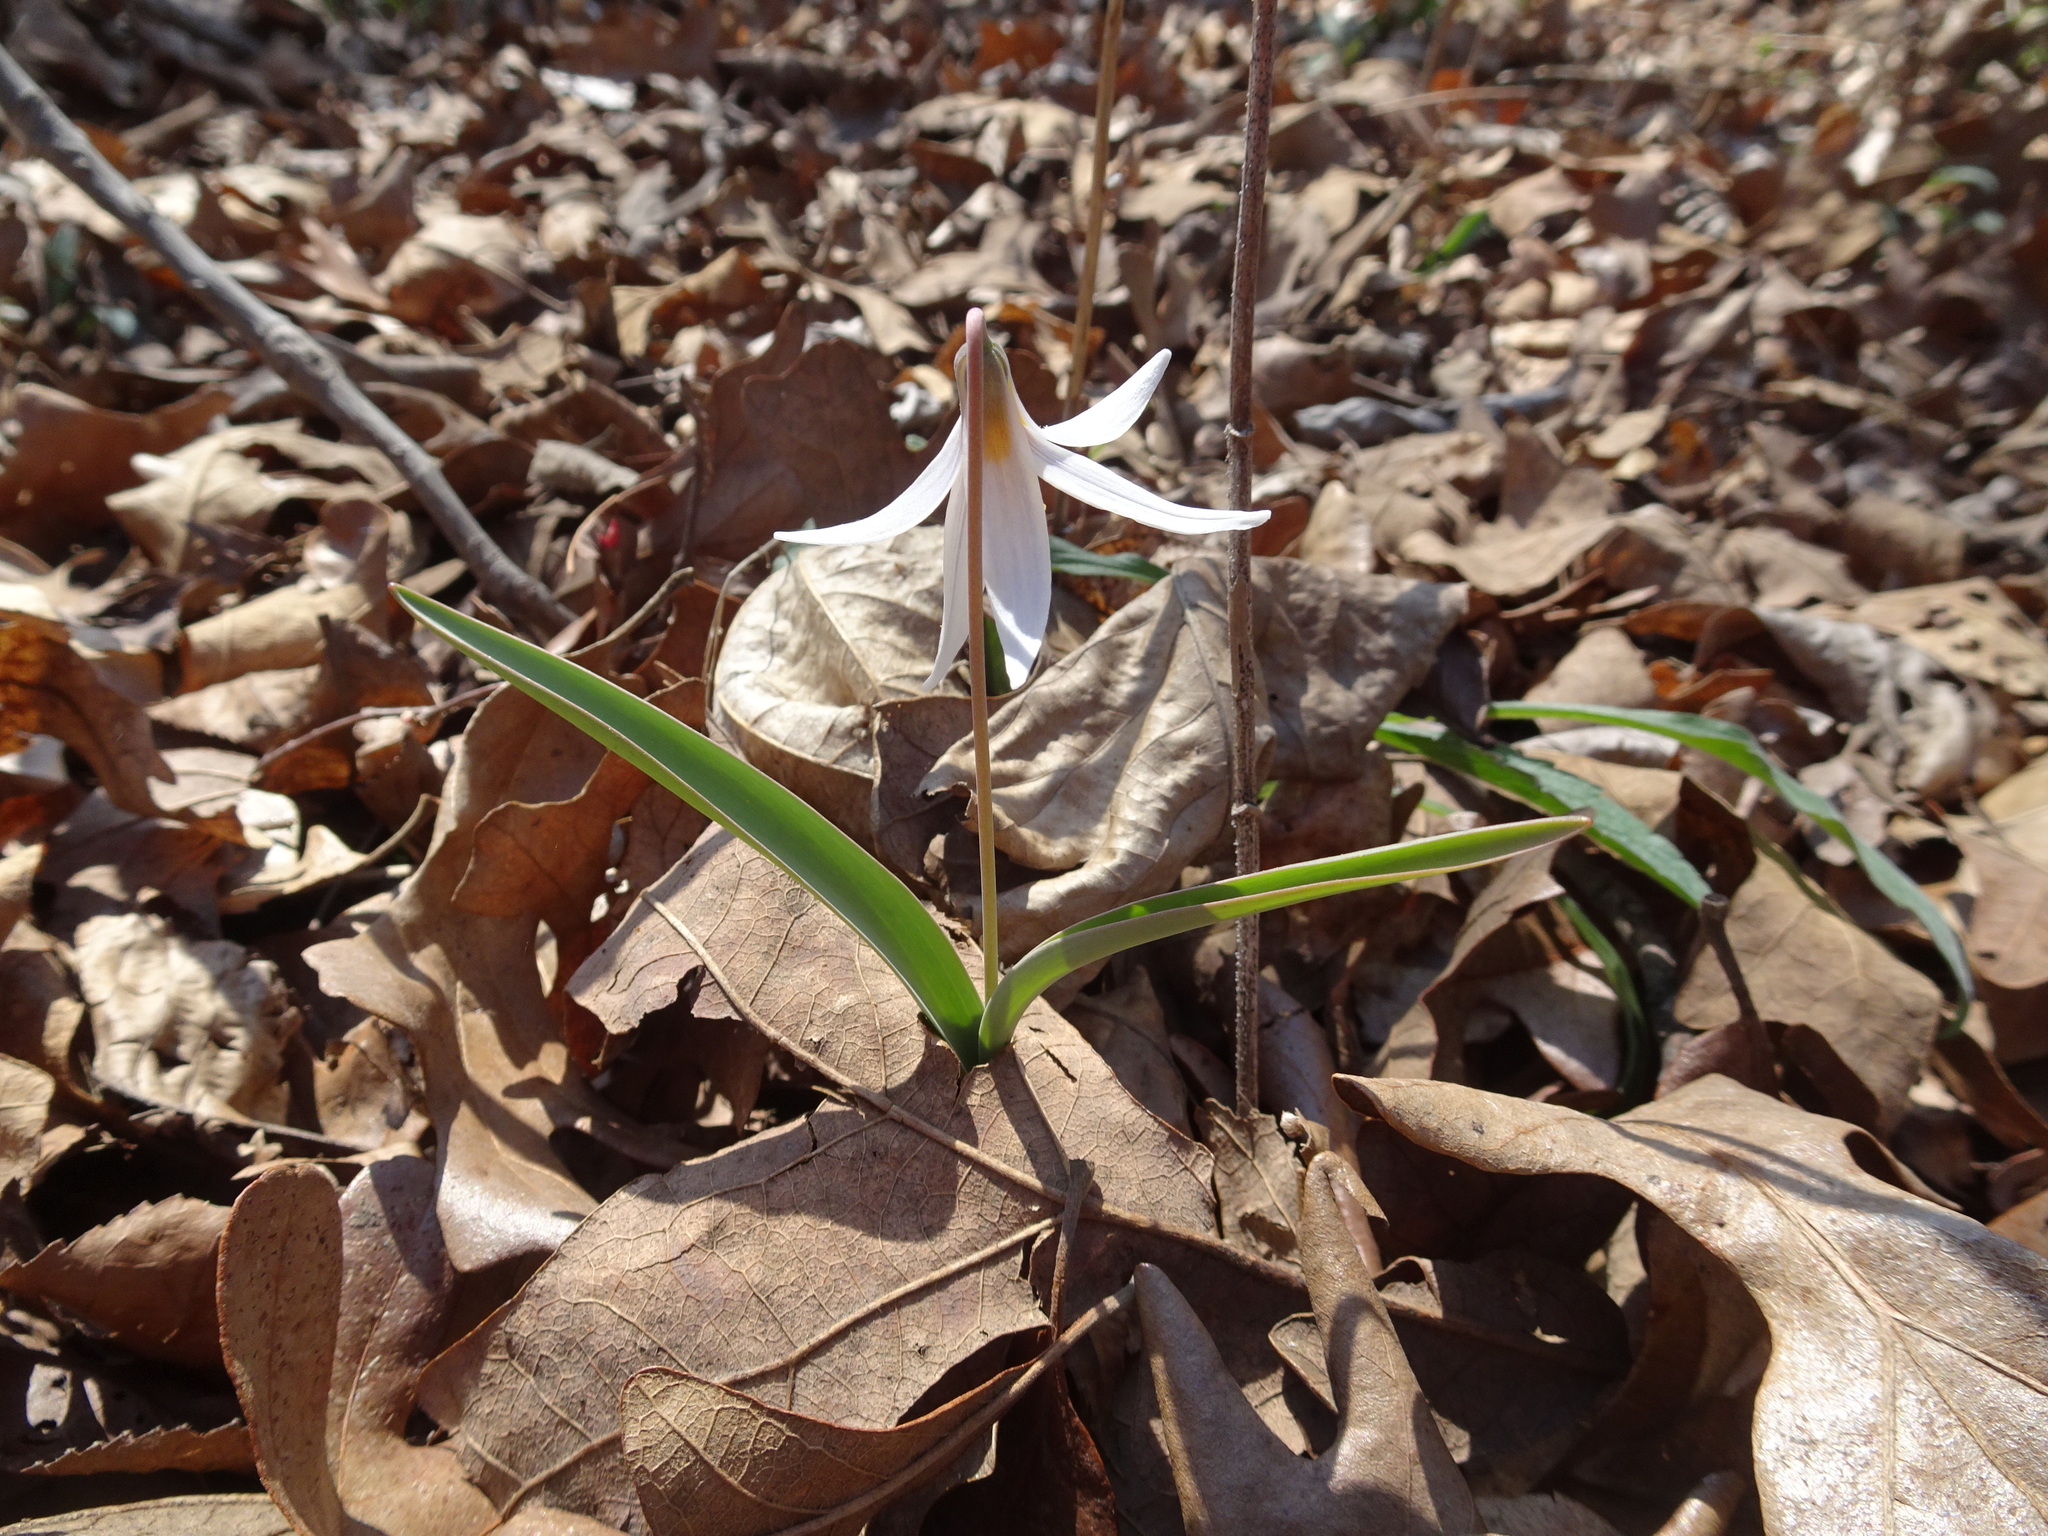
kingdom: Plantae
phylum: Tracheophyta
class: Liliopsida
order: Liliales
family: Liliaceae
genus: Erythronium
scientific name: Erythronium mesochoreum
